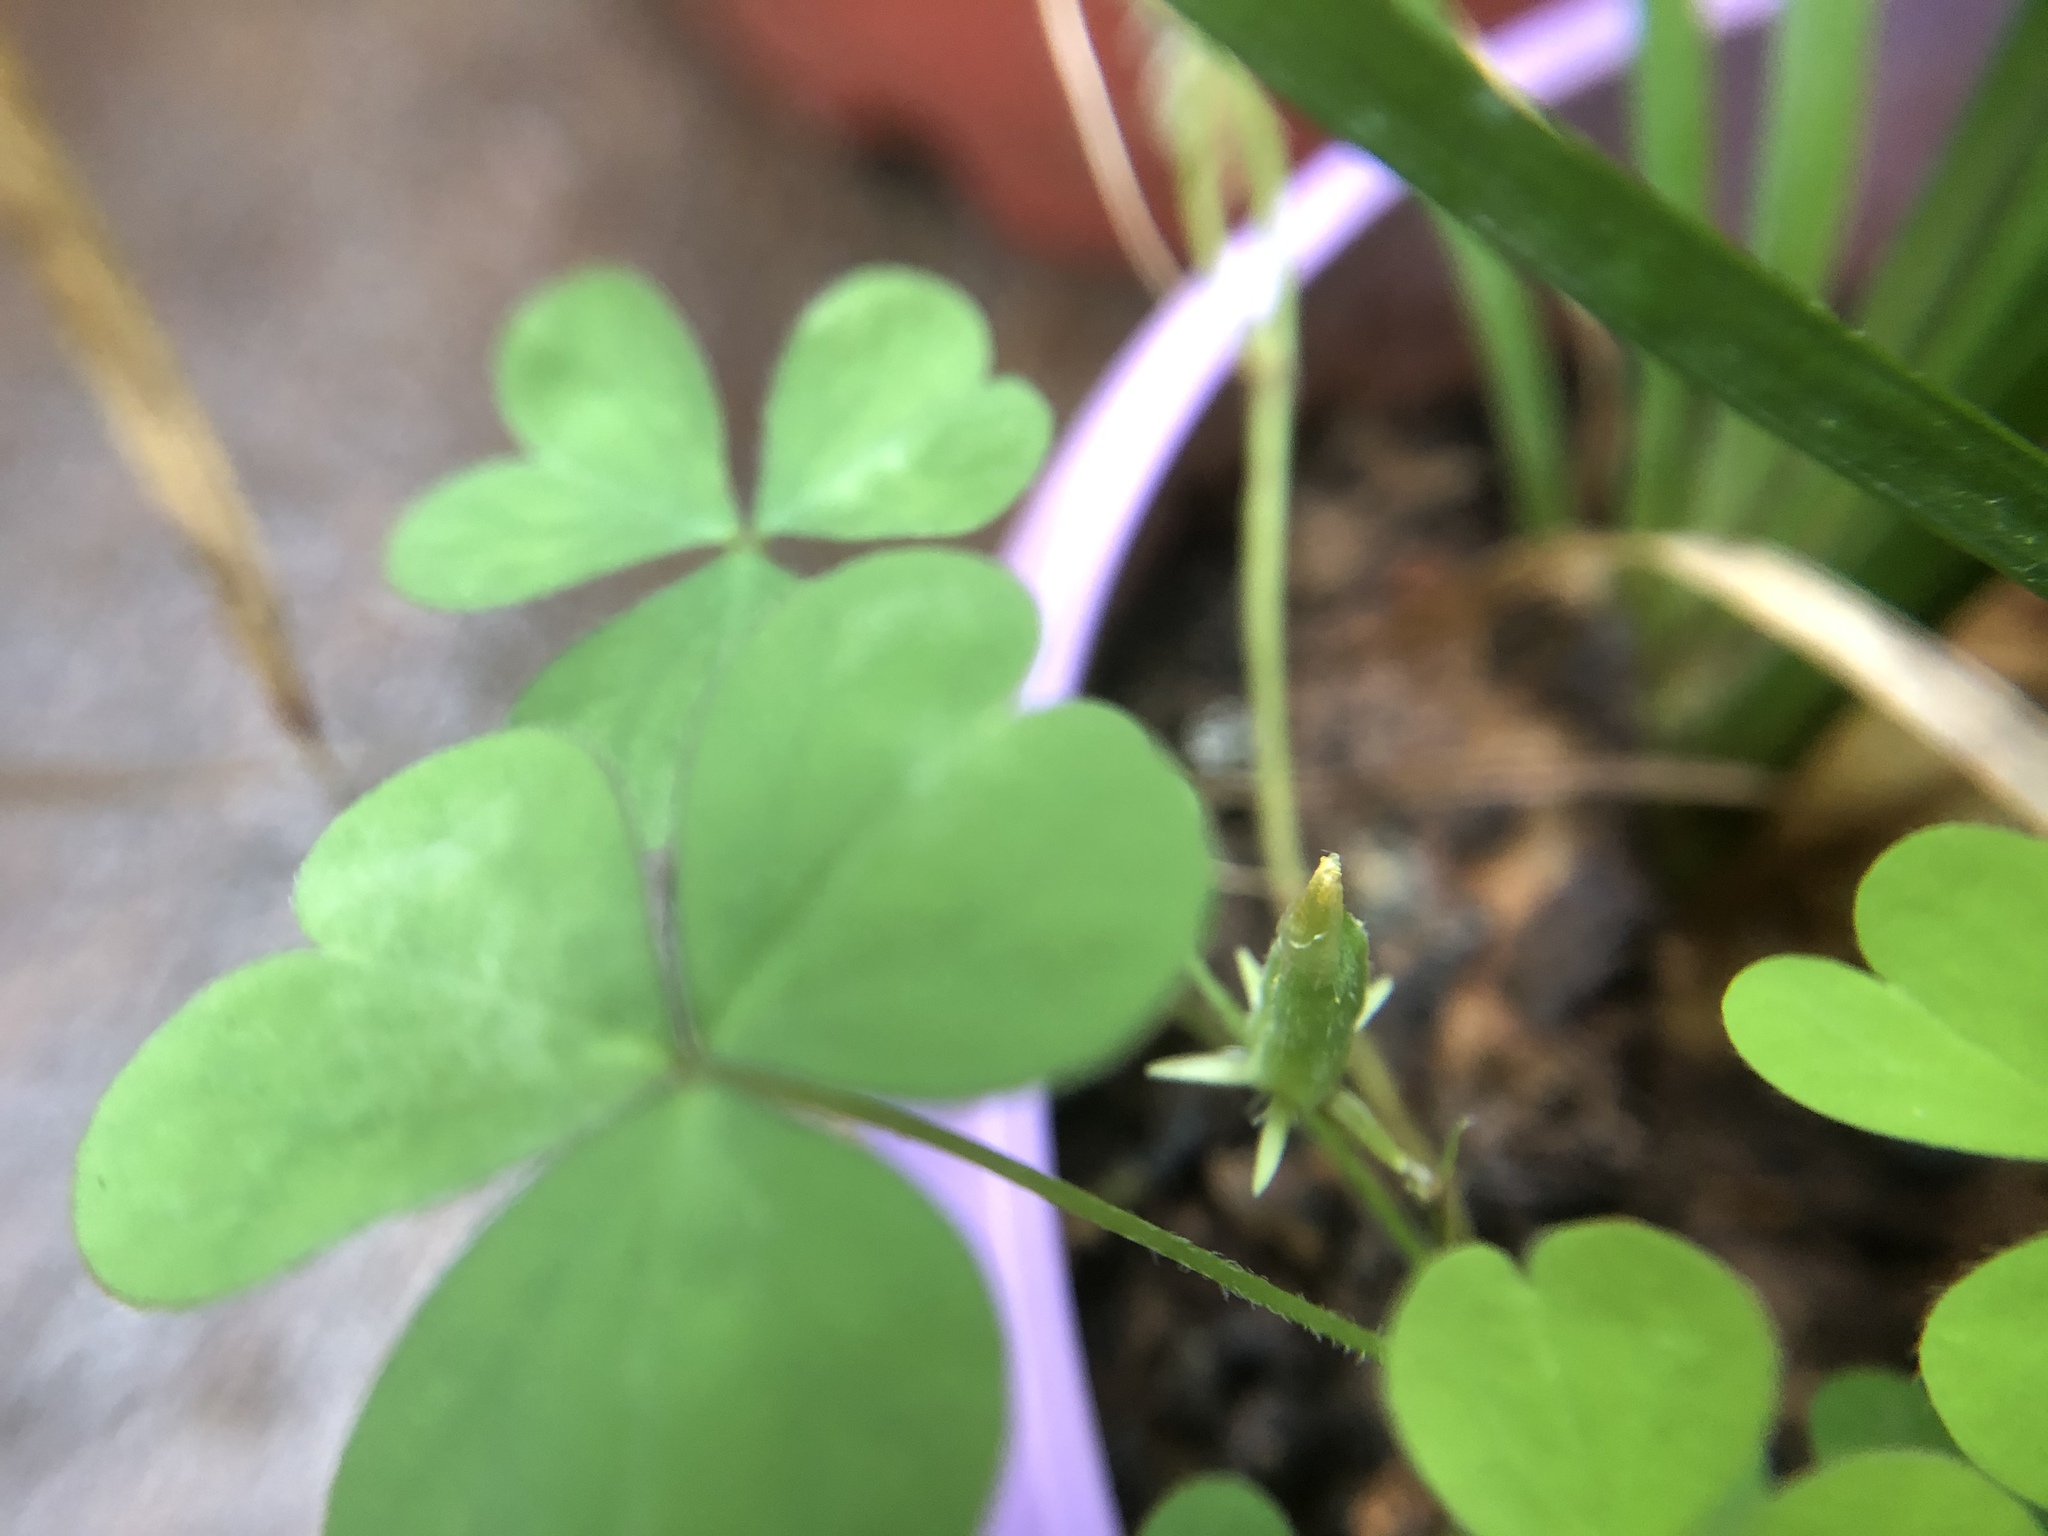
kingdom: Plantae
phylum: Tracheophyta
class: Magnoliopsida
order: Oxalidales
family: Oxalidaceae
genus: Oxalis
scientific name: Oxalis corniculata
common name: Procumbent yellow-sorrel
